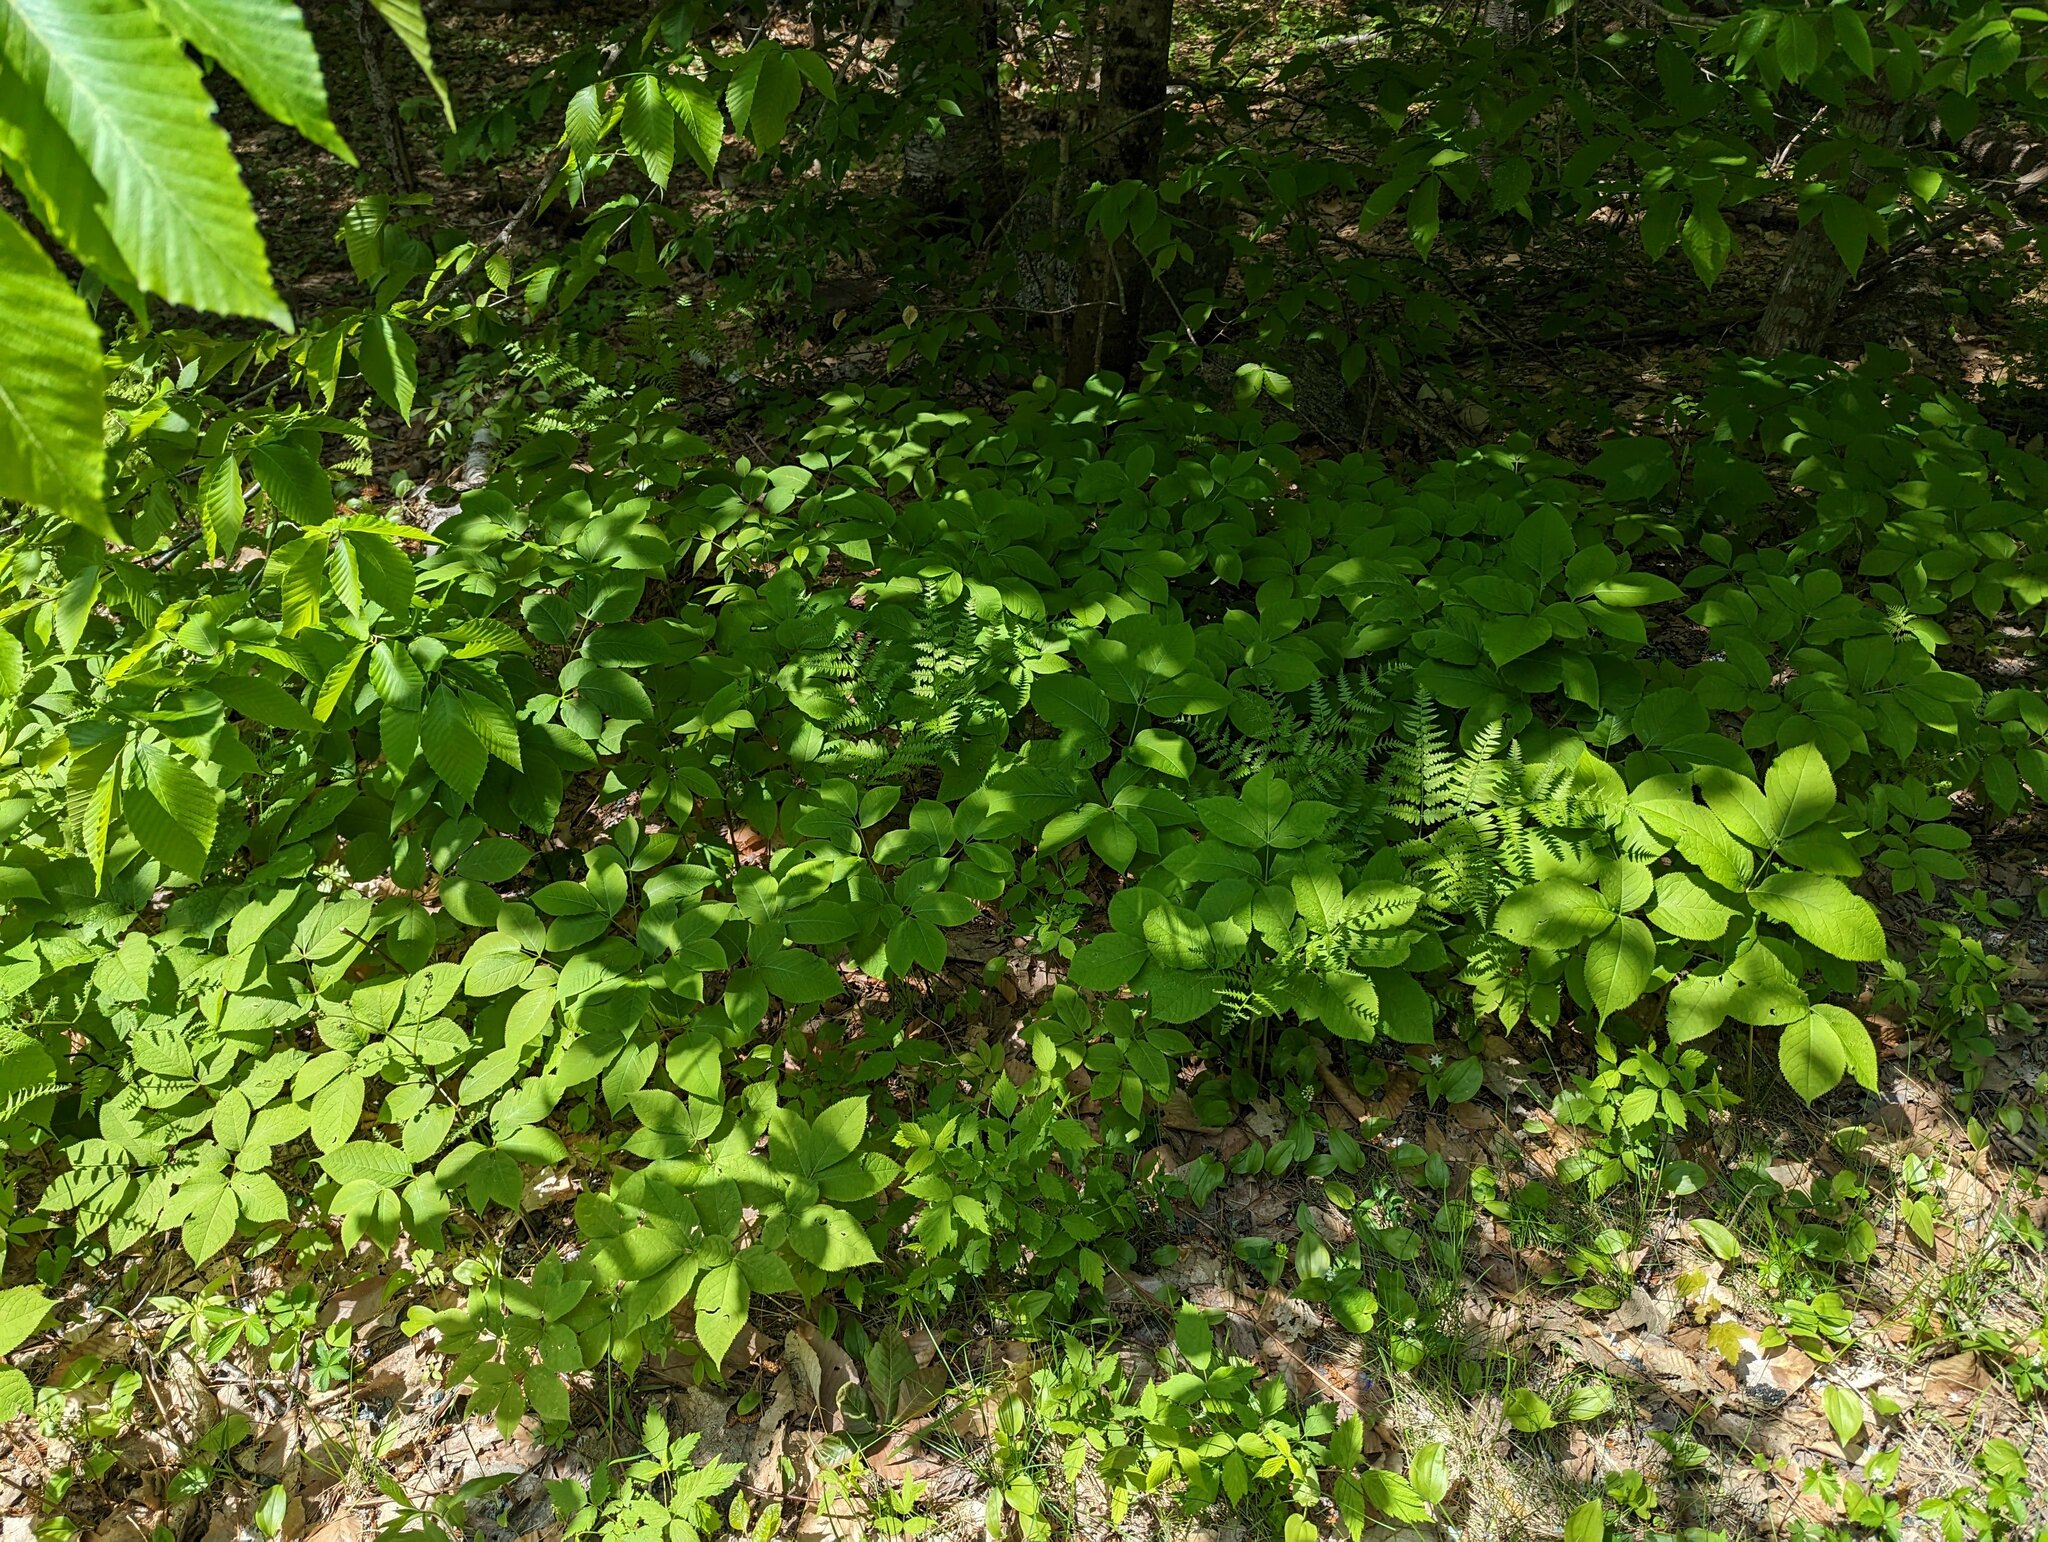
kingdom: Plantae
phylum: Tracheophyta
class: Magnoliopsida
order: Apiales
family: Araliaceae
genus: Aralia
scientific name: Aralia nudicaulis
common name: Wild sarsaparilla
